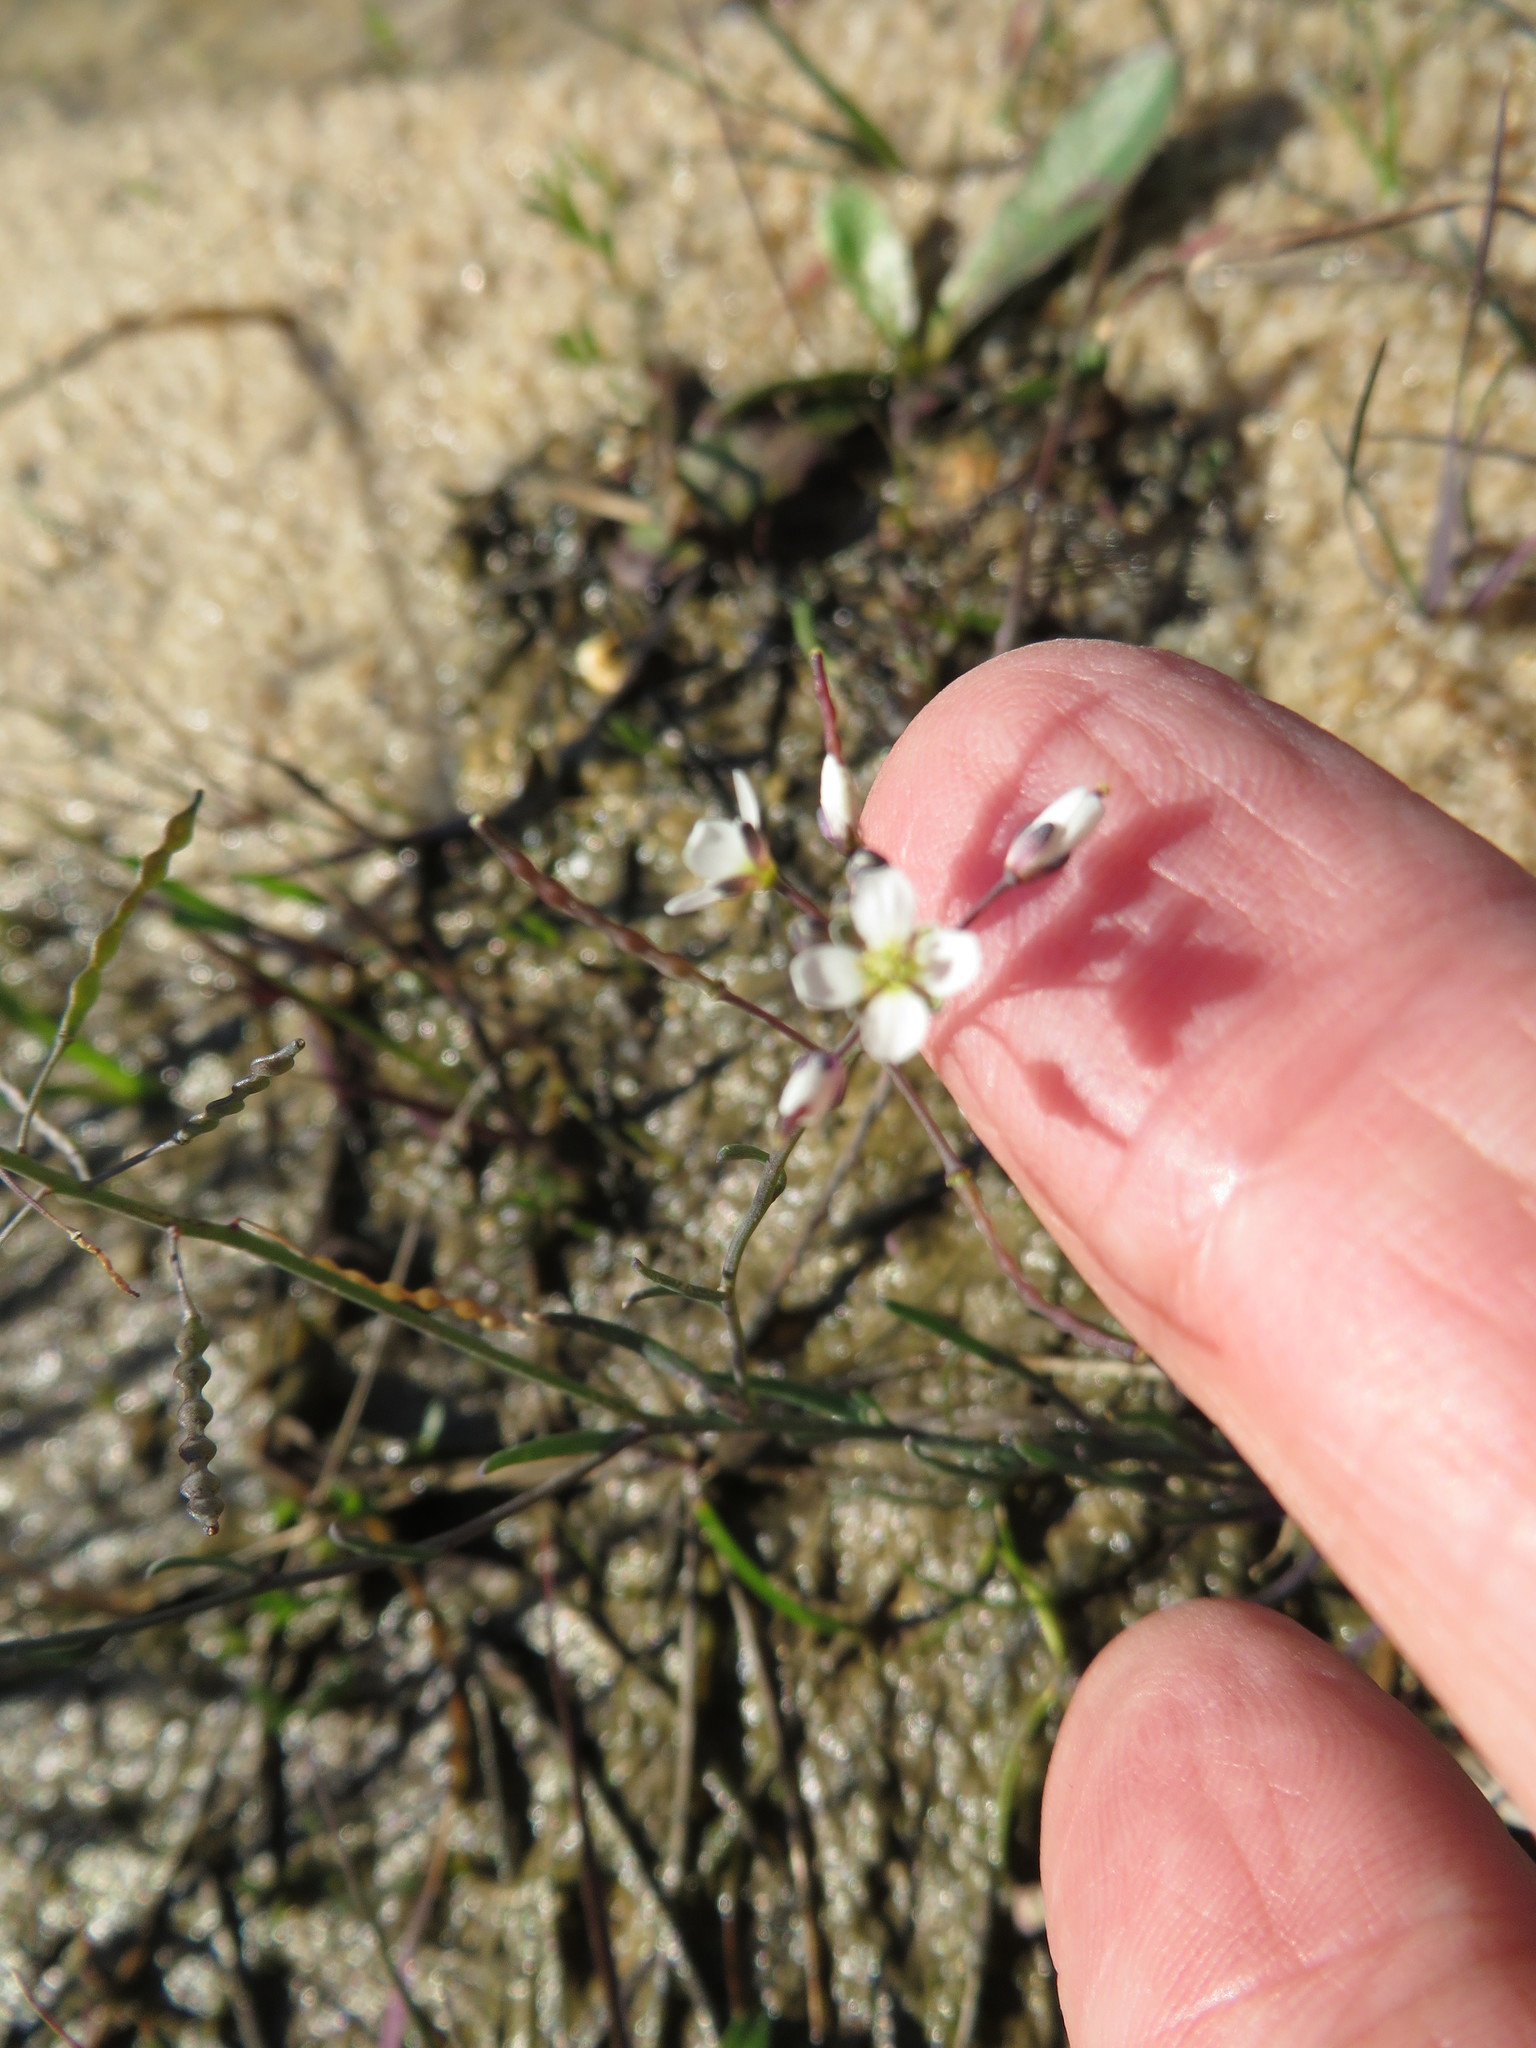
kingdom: Plantae
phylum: Tracheophyta
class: Magnoliopsida
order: Brassicales
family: Brassicaceae
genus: Heliophila
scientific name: Heliophila pusilla
